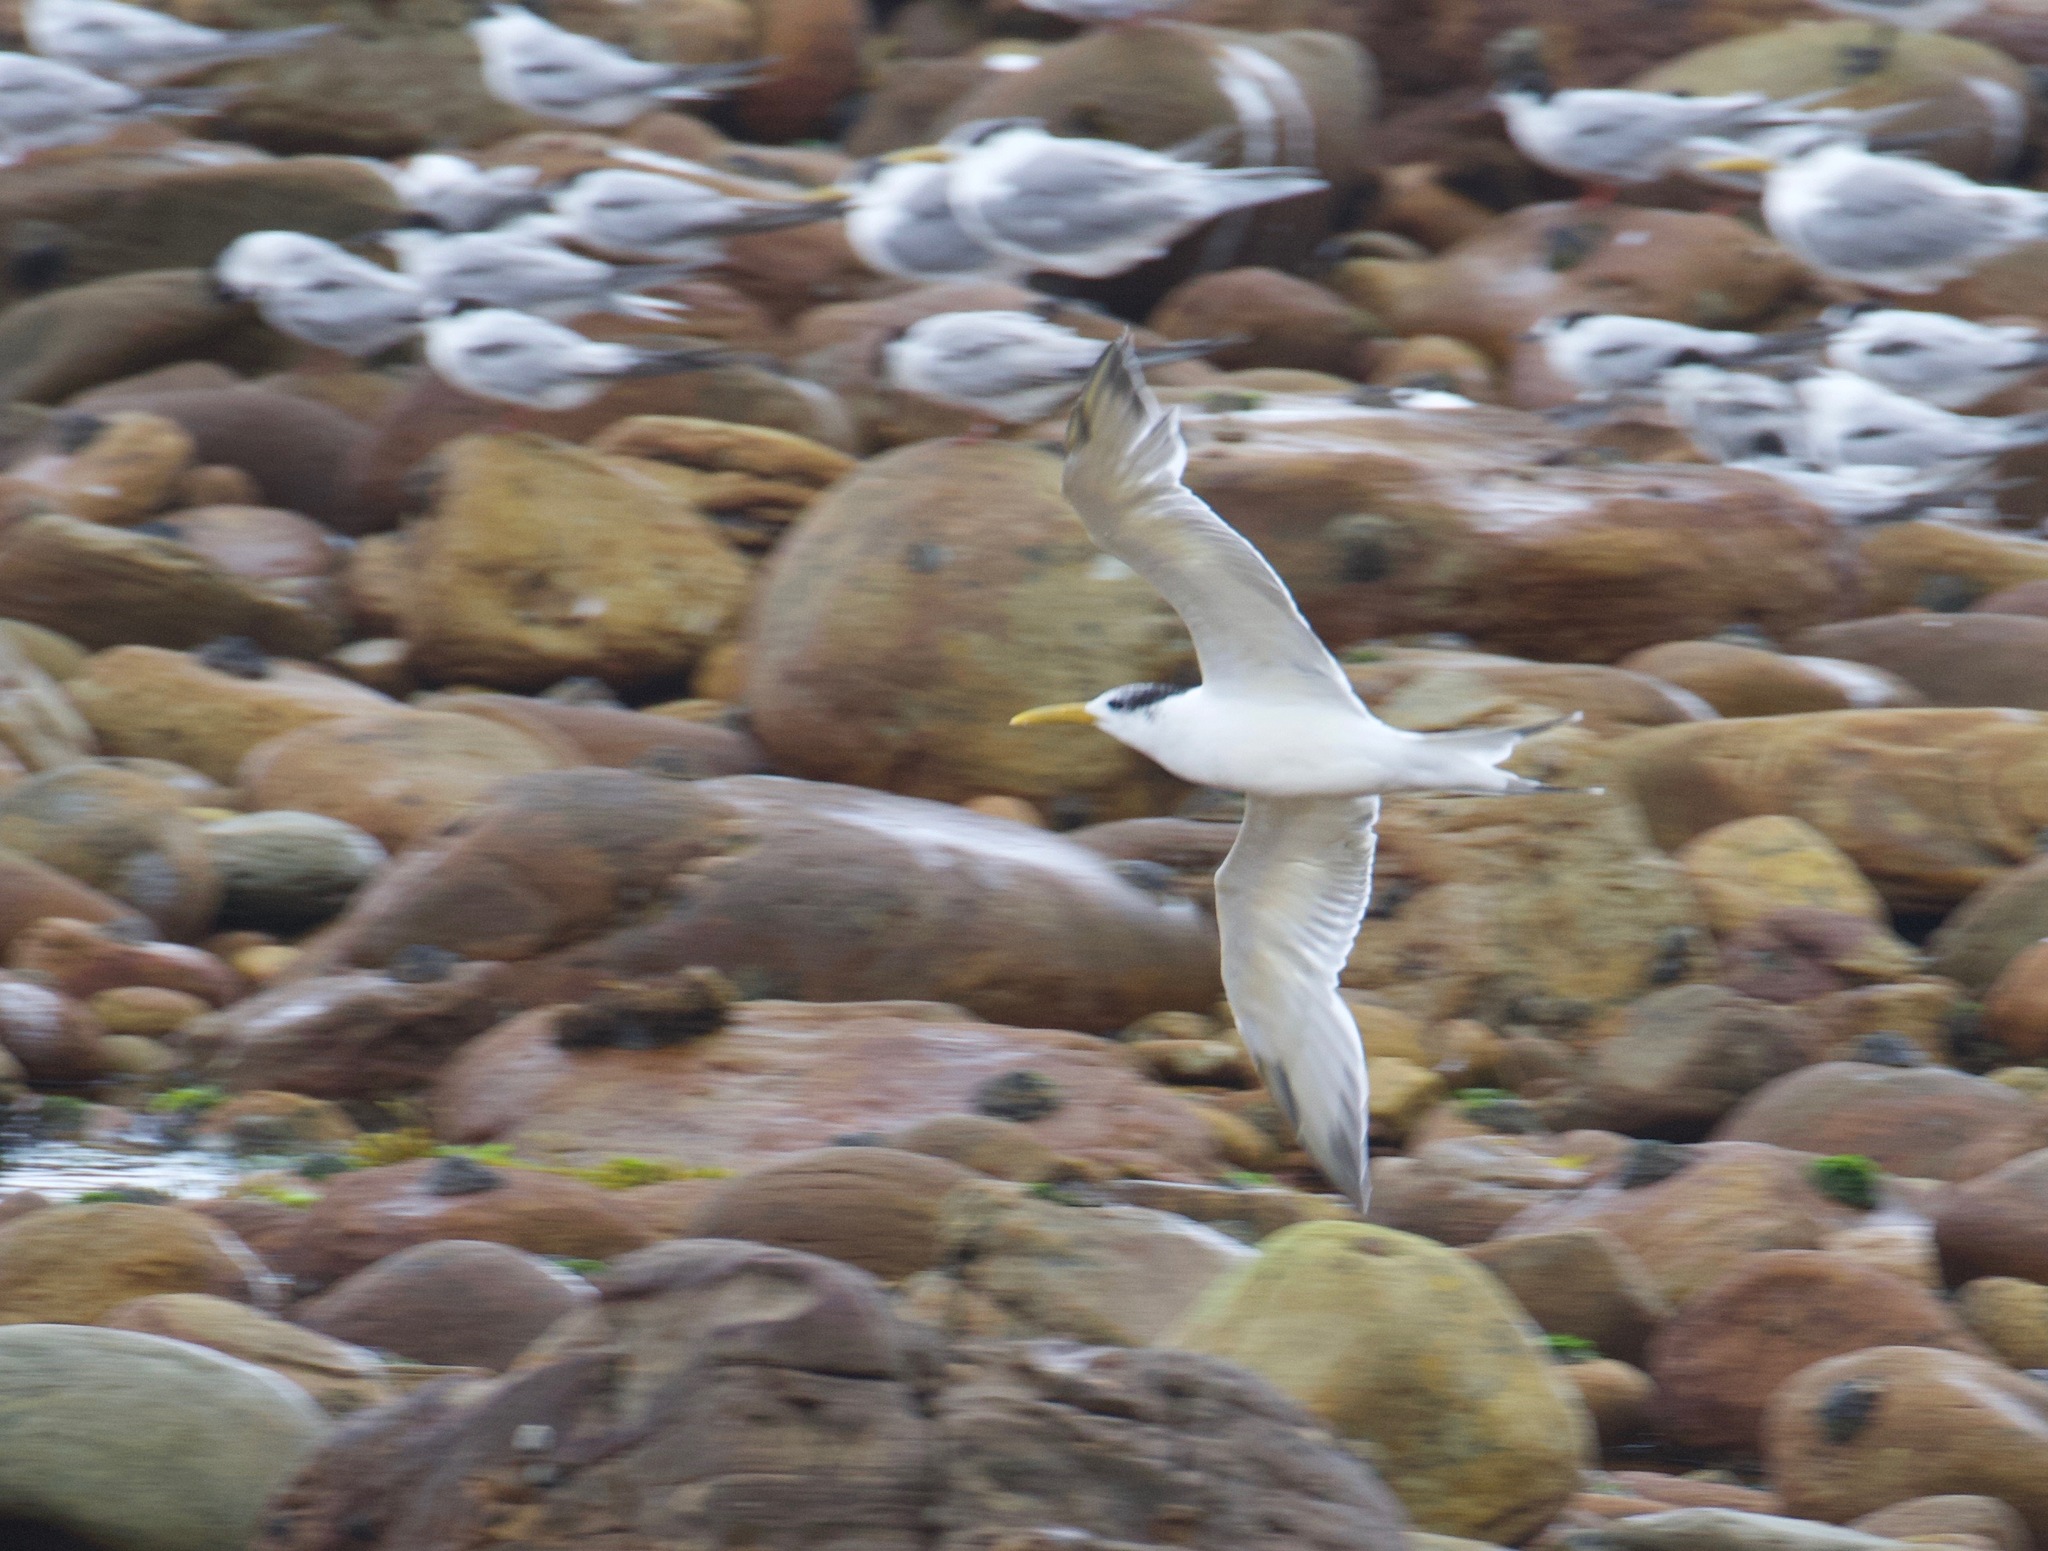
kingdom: Animalia
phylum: Chordata
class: Aves
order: Charadriiformes
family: Laridae
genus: Thalasseus
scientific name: Thalasseus bergii
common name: Greater crested tern
